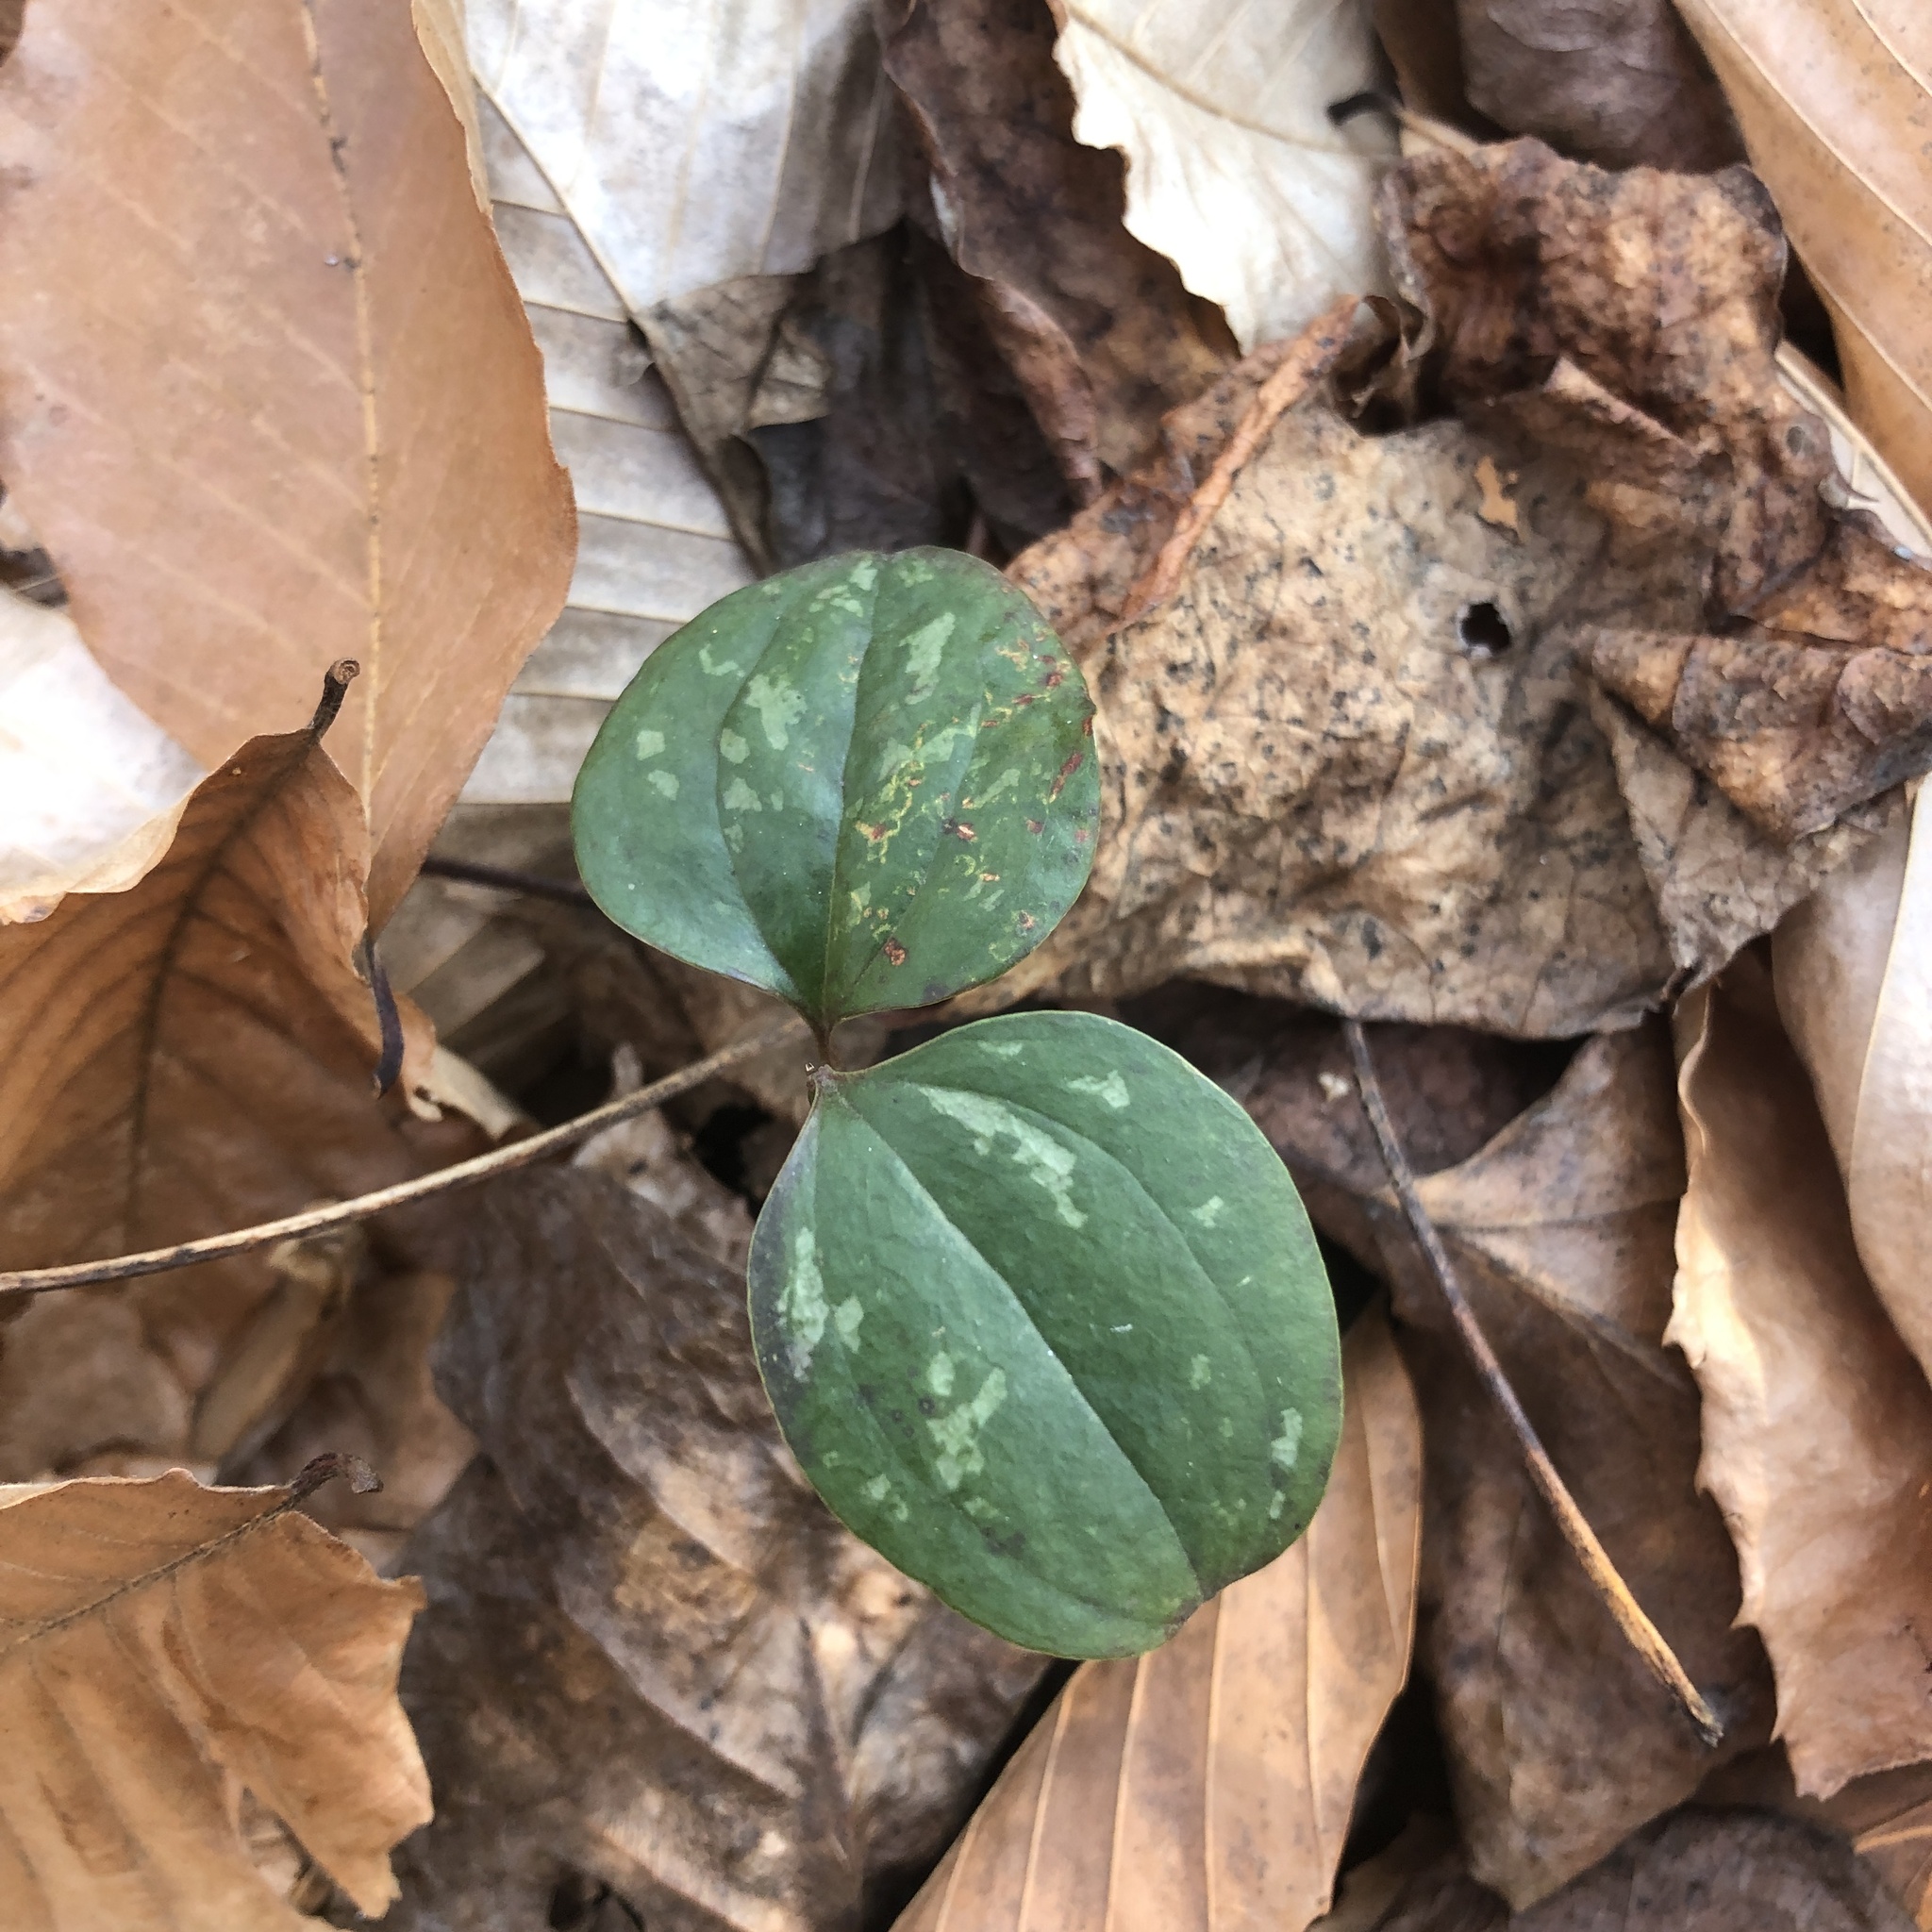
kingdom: Plantae
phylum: Tracheophyta
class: Liliopsida
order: Liliales
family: Smilacaceae
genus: Smilax
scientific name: Smilax glauca
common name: Cat greenbrier
